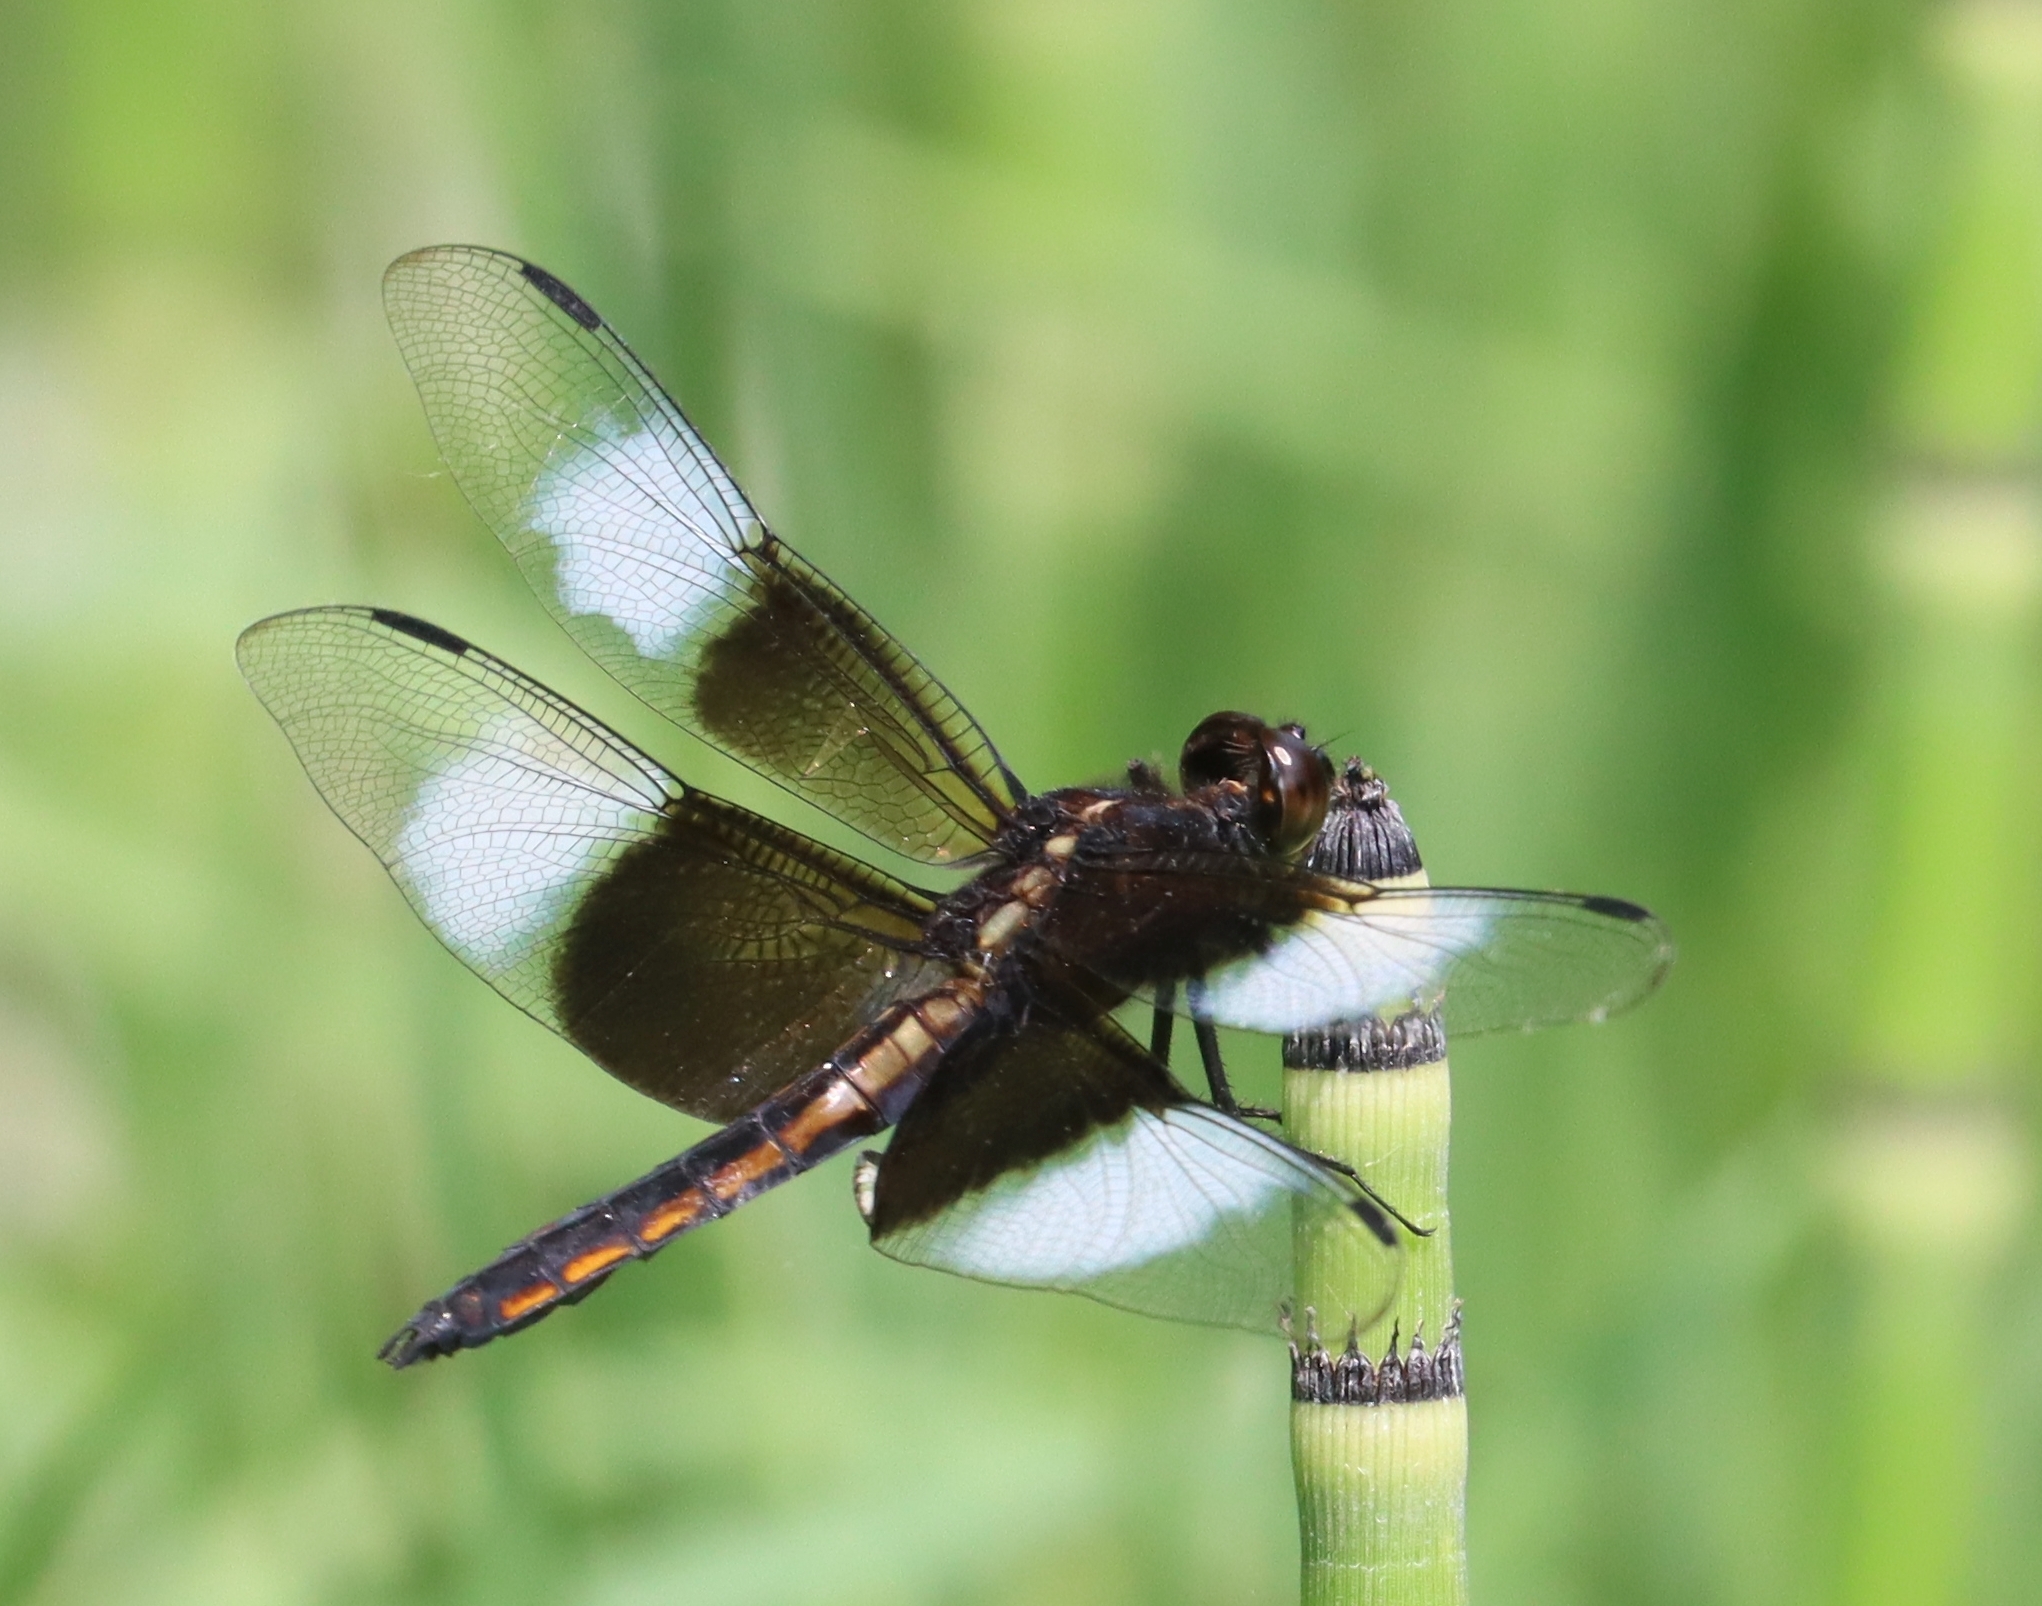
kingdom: Animalia
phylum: Arthropoda
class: Insecta
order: Odonata
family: Libellulidae
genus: Libellula
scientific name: Libellula luctuosa
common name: Widow skimmer
